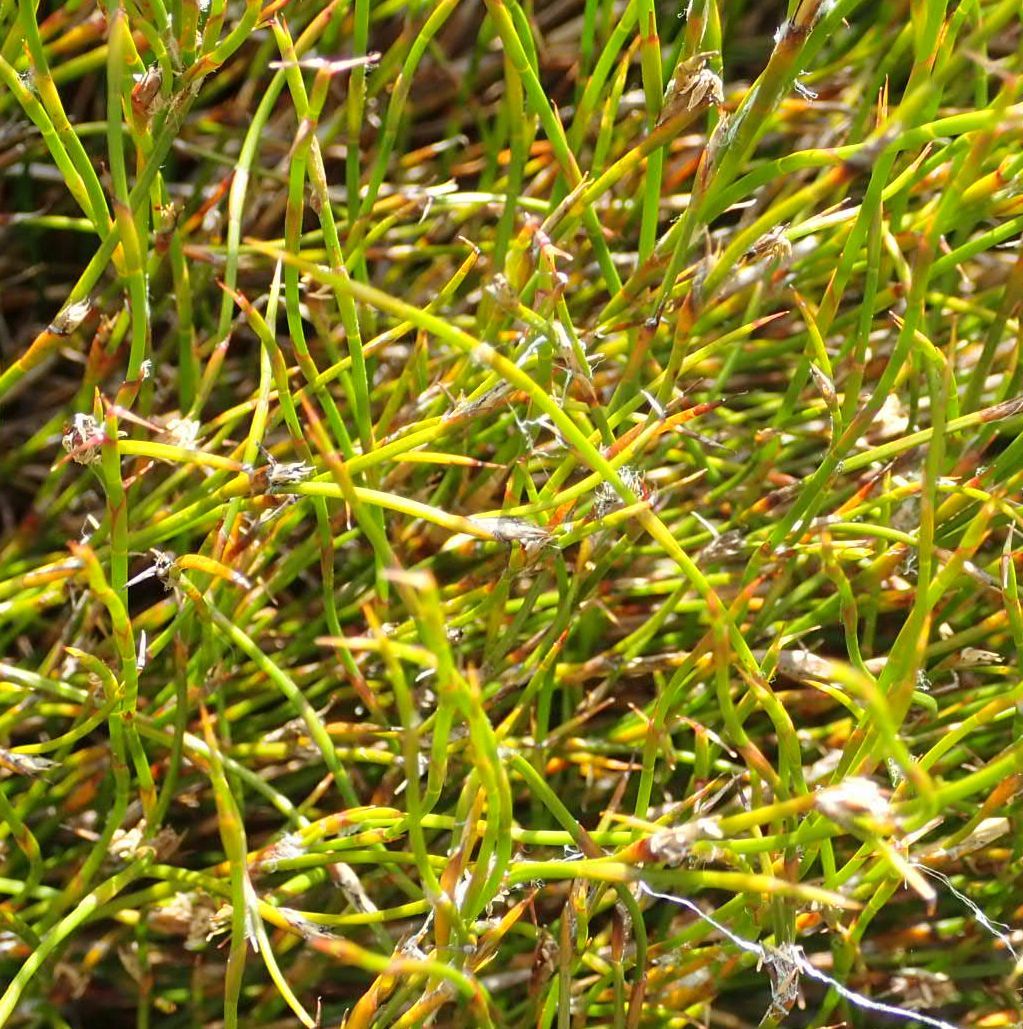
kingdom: Plantae
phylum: Tracheophyta
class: Liliopsida
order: Poales
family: Restionaceae
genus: Empodisma
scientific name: Empodisma minus
